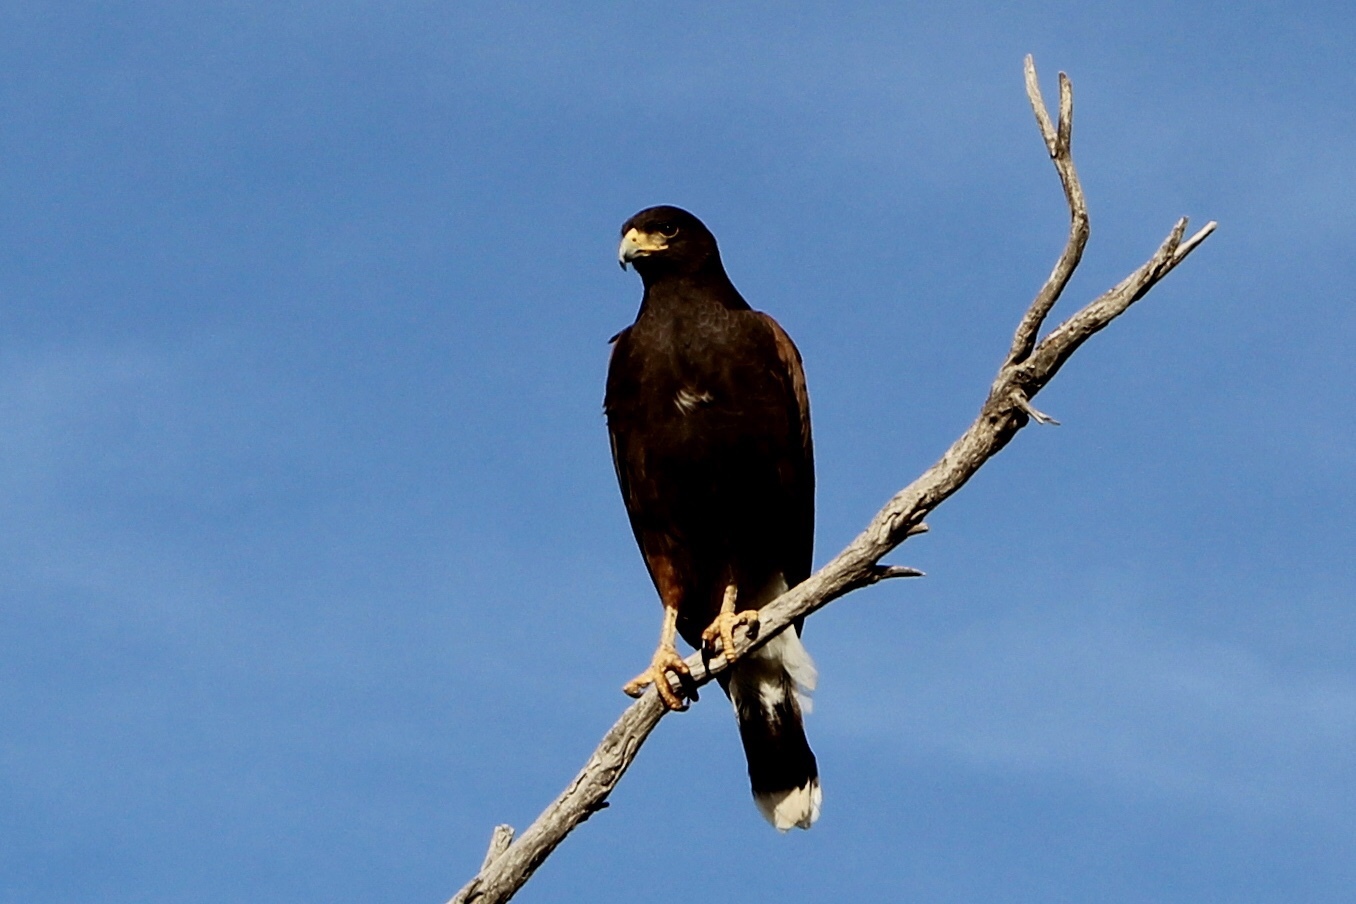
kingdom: Animalia
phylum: Chordata
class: Aves
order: Accipitriformes
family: Accipitridae
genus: Parabuteo
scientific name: Parabuteo unicinctus
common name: Harris's hawk
